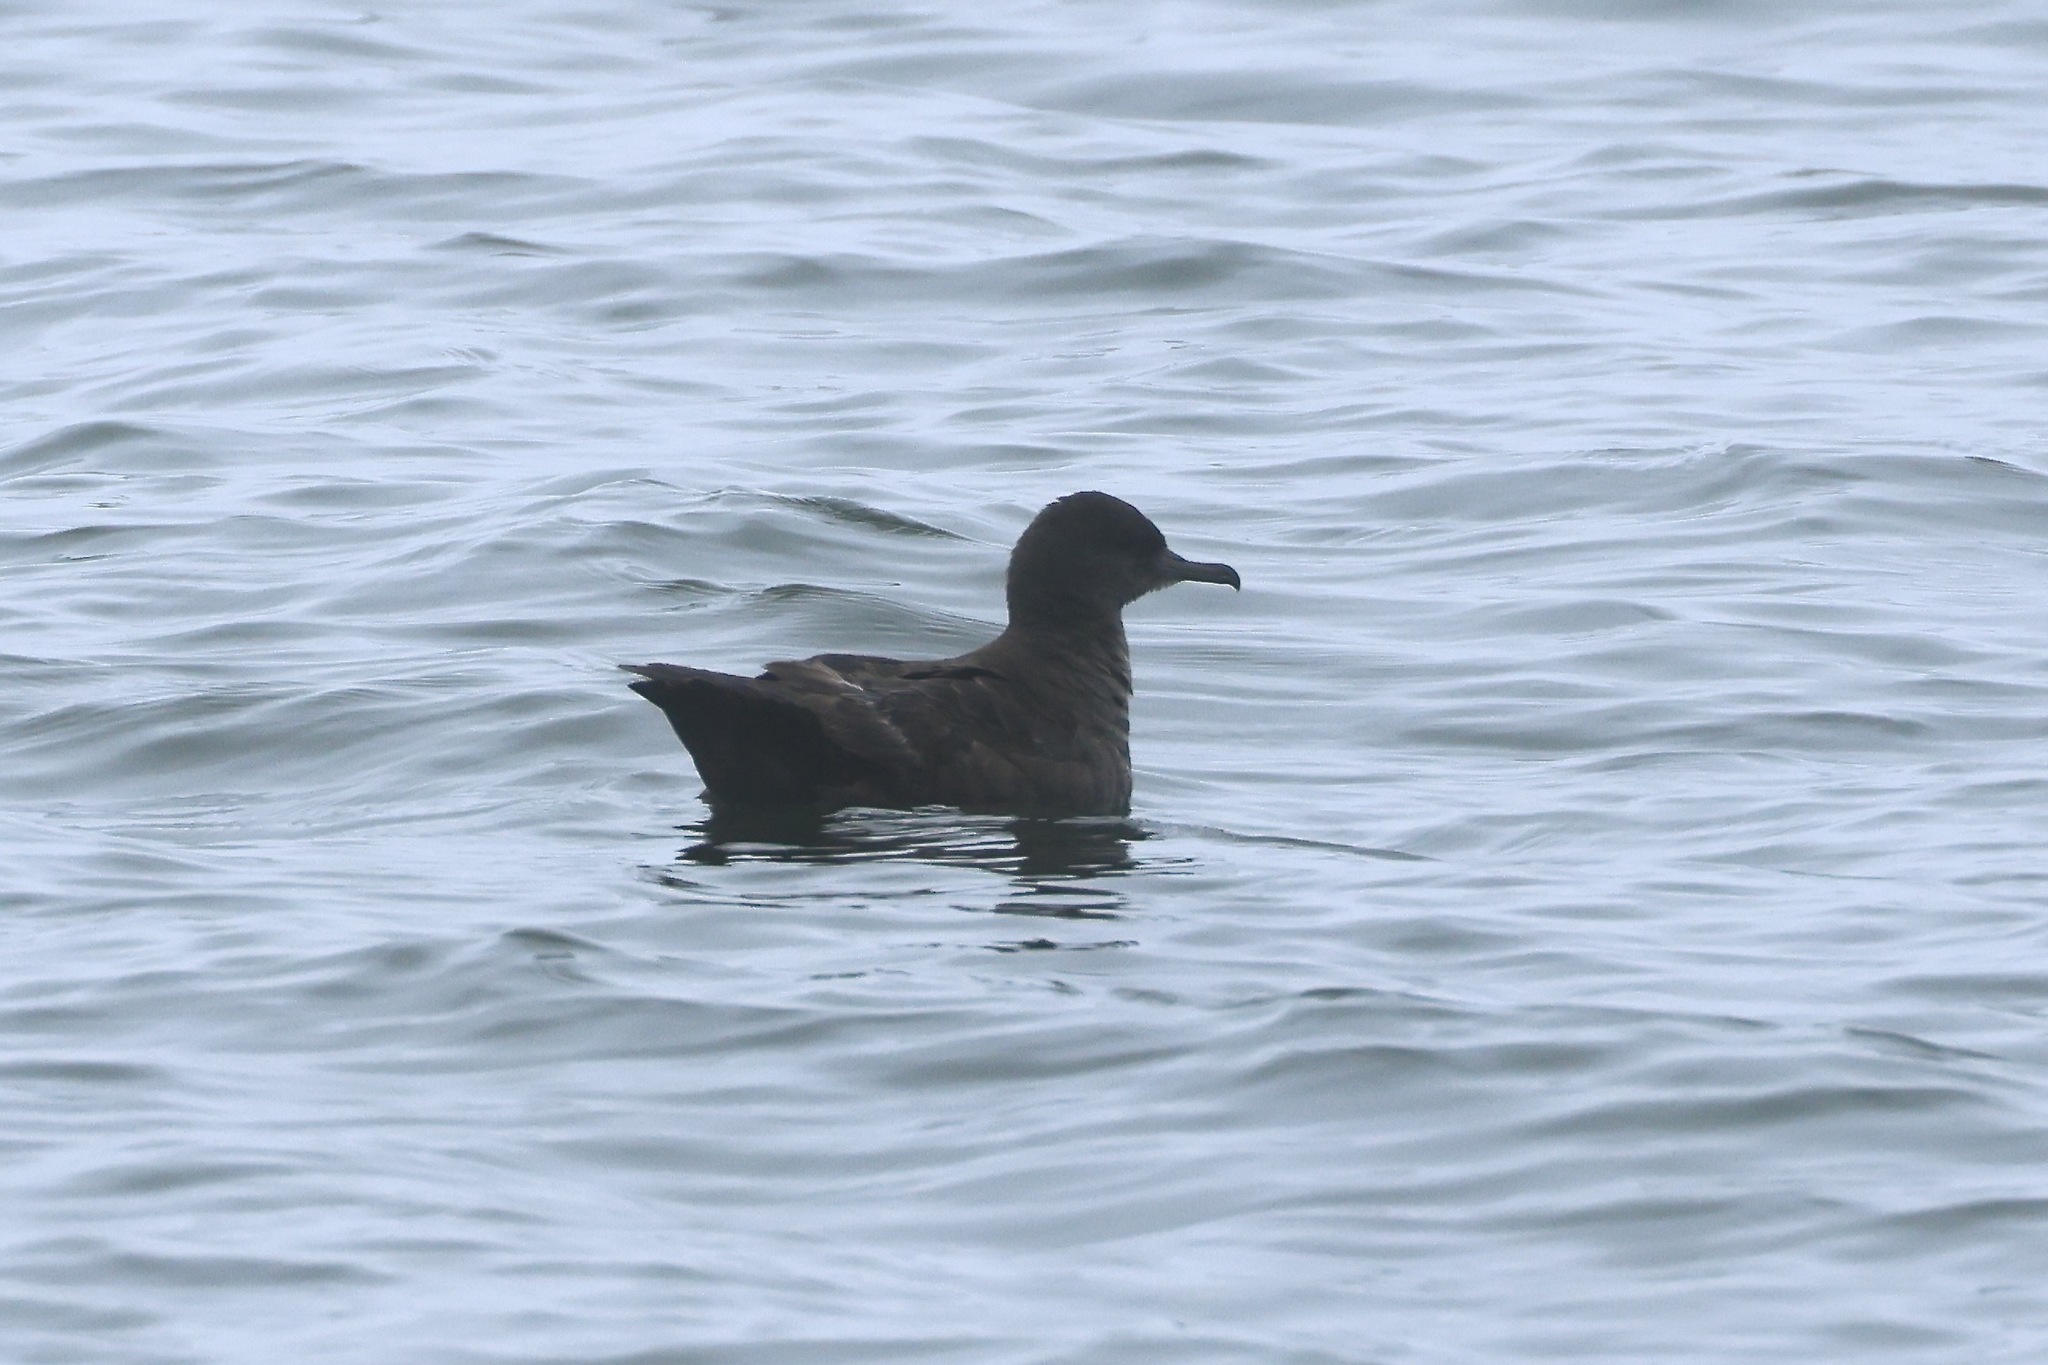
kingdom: Animalia
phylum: Chordata
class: Aves
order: Procellariiformes
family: Procellariidae
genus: Puffinus
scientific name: Puffinus griseus
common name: Sooty shearwater
